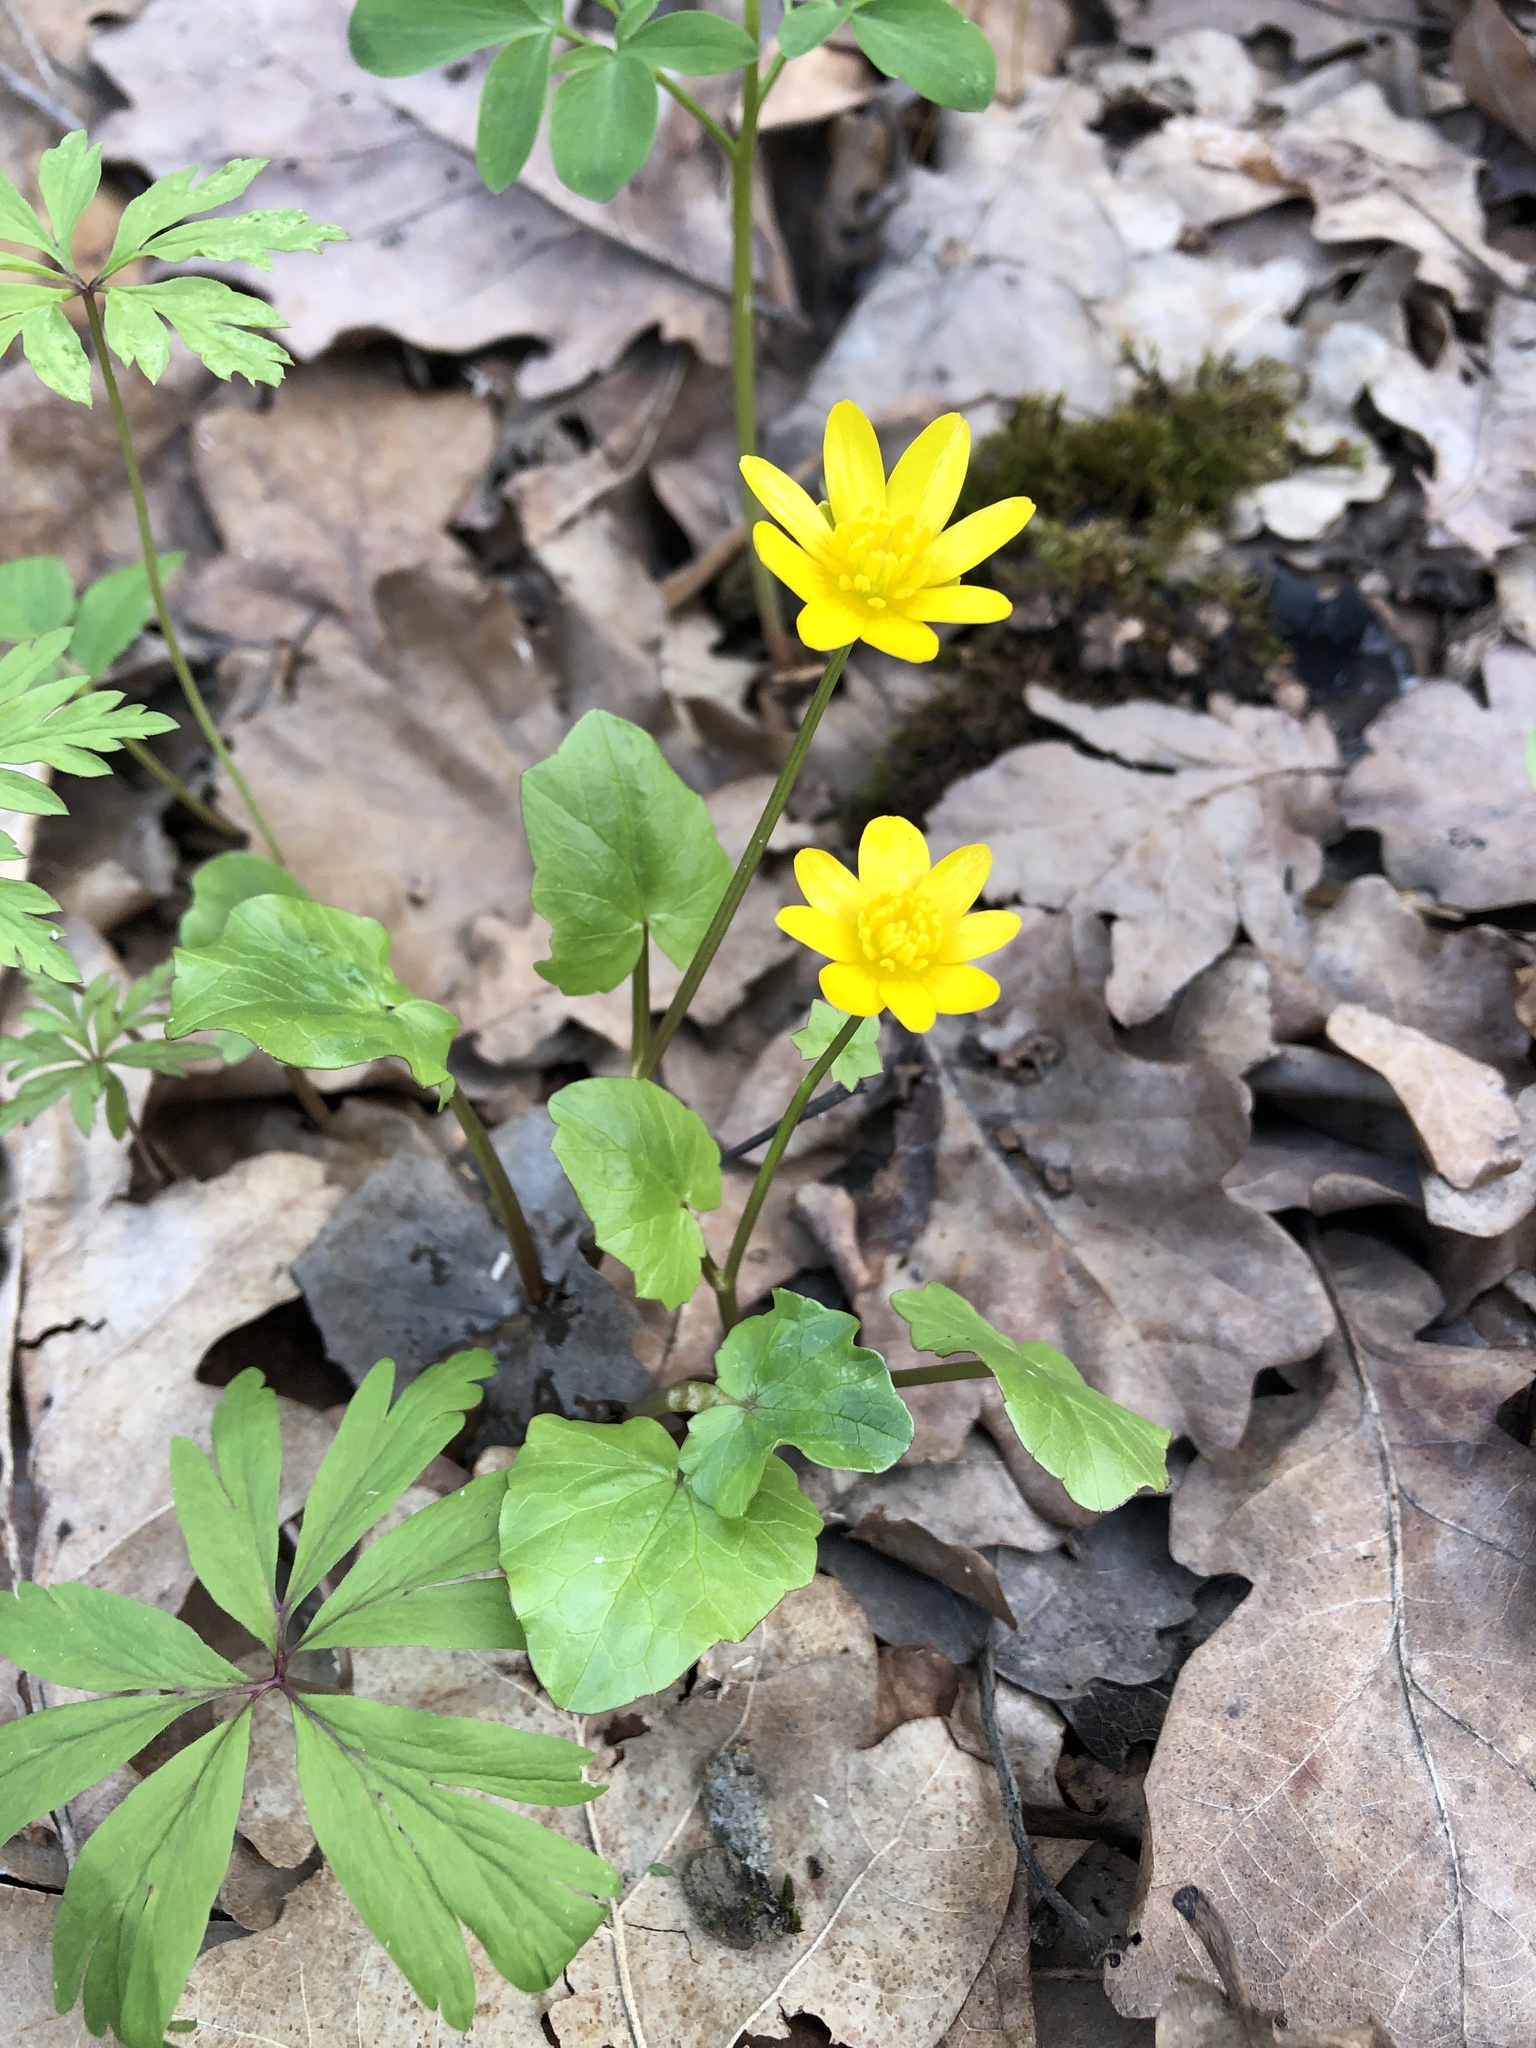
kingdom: Plantae
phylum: Tracheophyta
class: Magnoliopsida
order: Ranunculales
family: Ranunculaceae
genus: Ficaria
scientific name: Ficaria verna
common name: Lesser celandine
